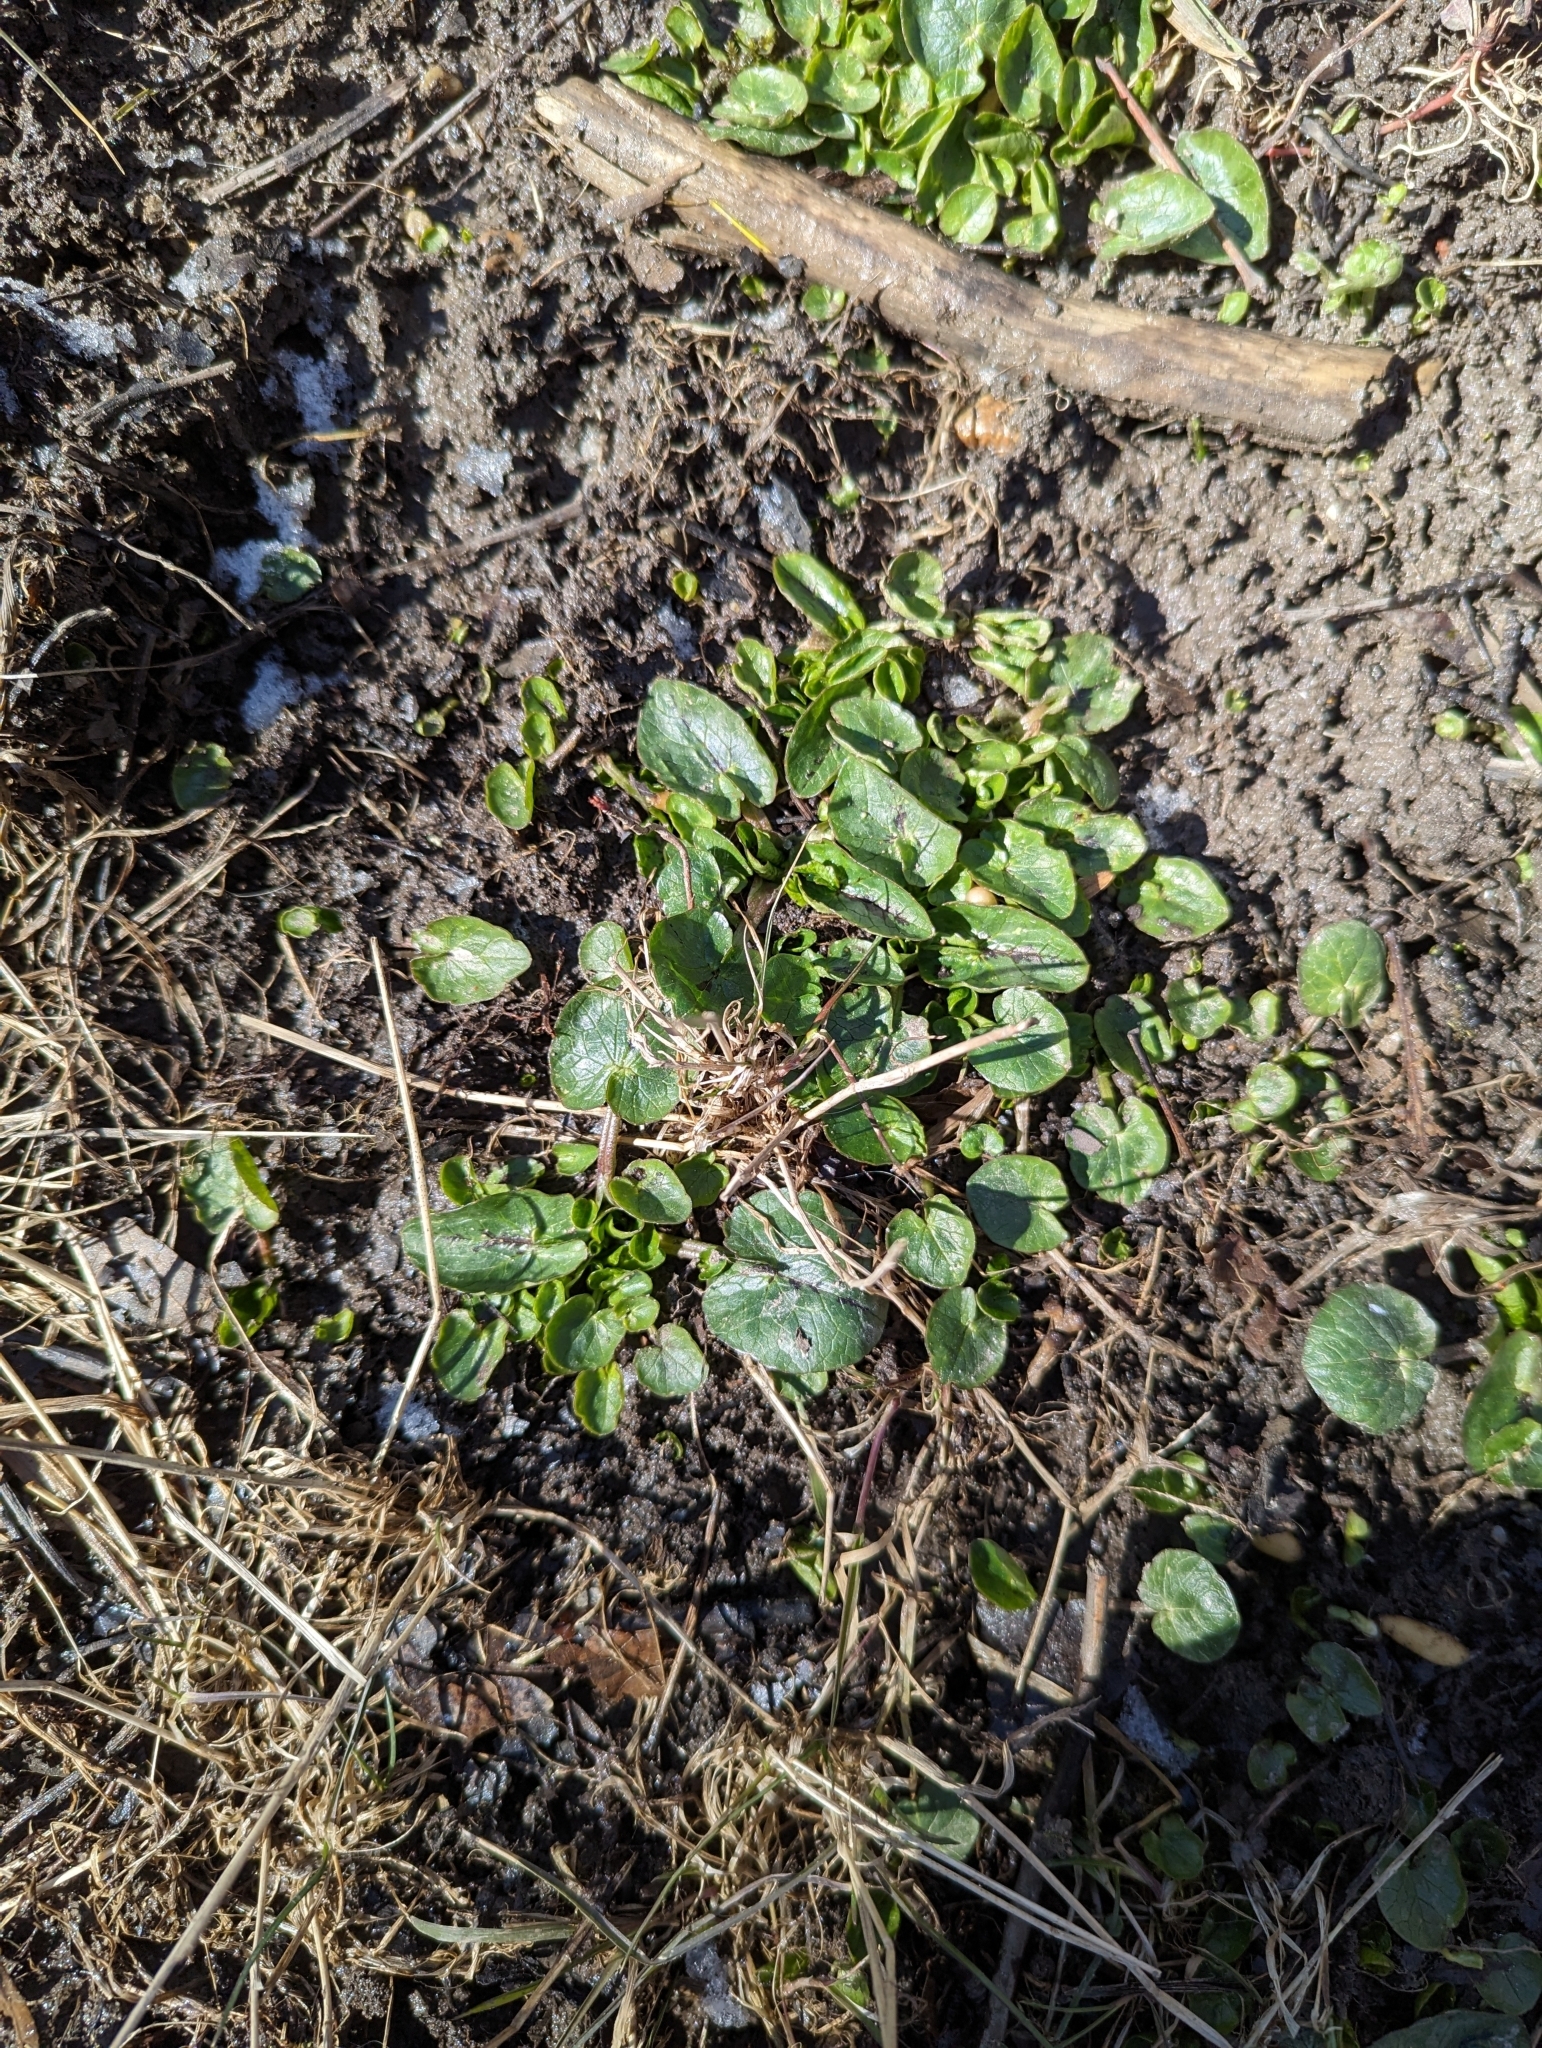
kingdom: Plantae
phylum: Tracheophyta
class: Magnoliopsida
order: Ranunculales
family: Ranunculaceae
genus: Ficaria
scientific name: Ficaria verna
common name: Lesser celandine
